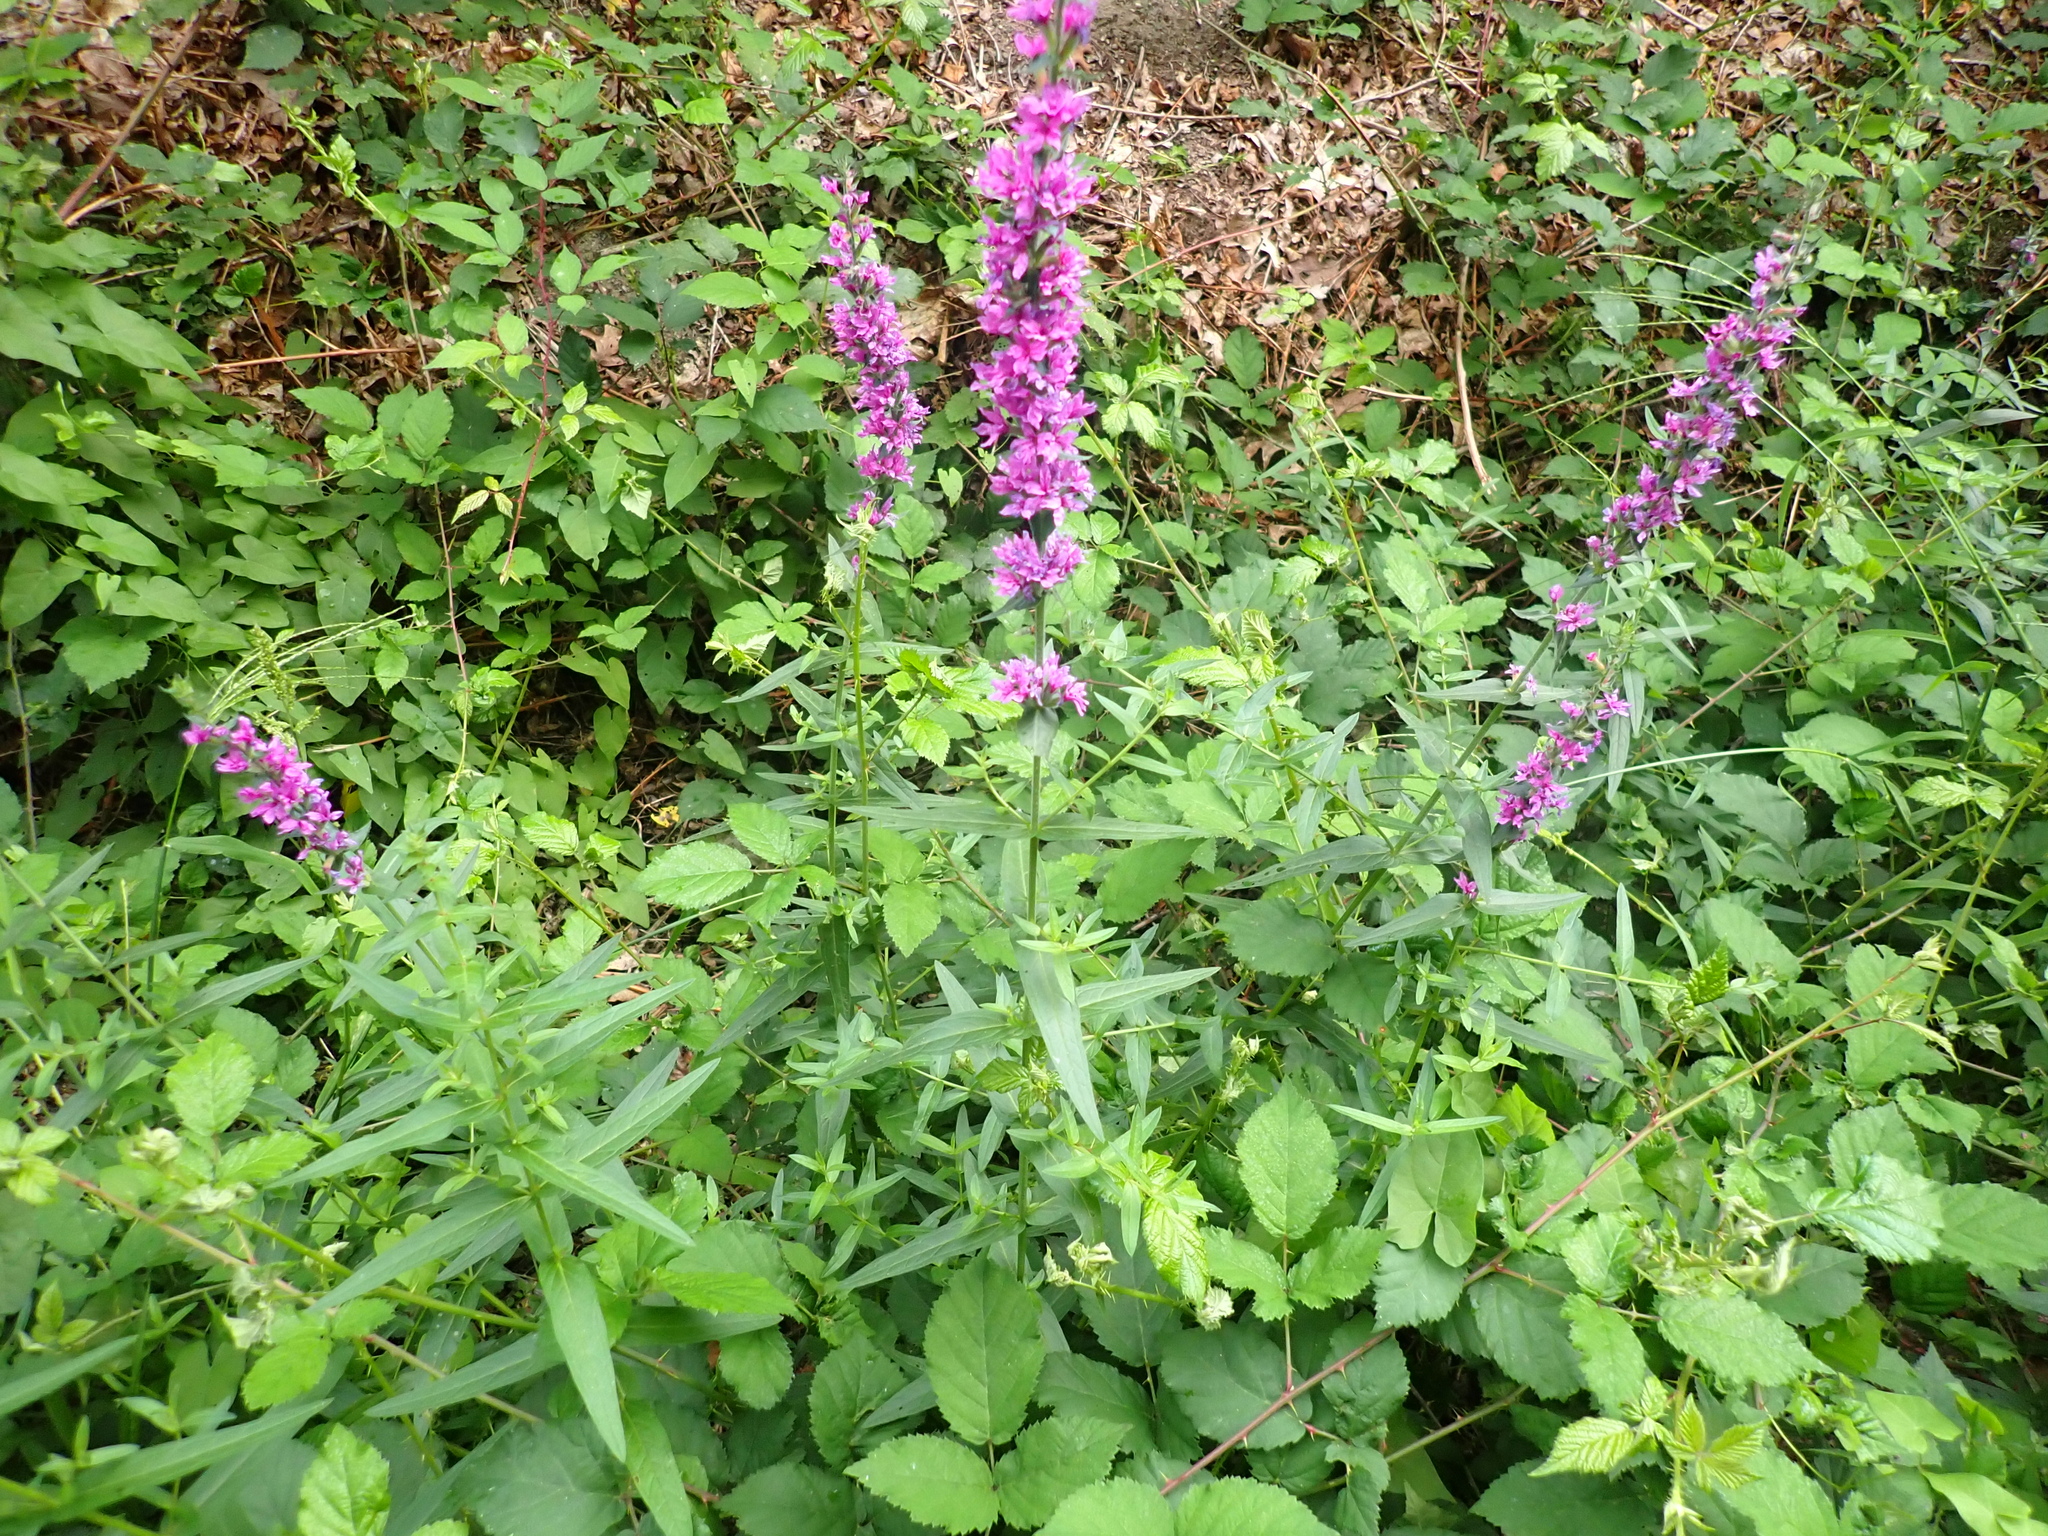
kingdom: Plantae
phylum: Tracheophyta
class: Magnoliopsida
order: Myrtales
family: Lythraceae
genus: Lythrum
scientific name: Lythrum salicaria
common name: Purple loosestrife
